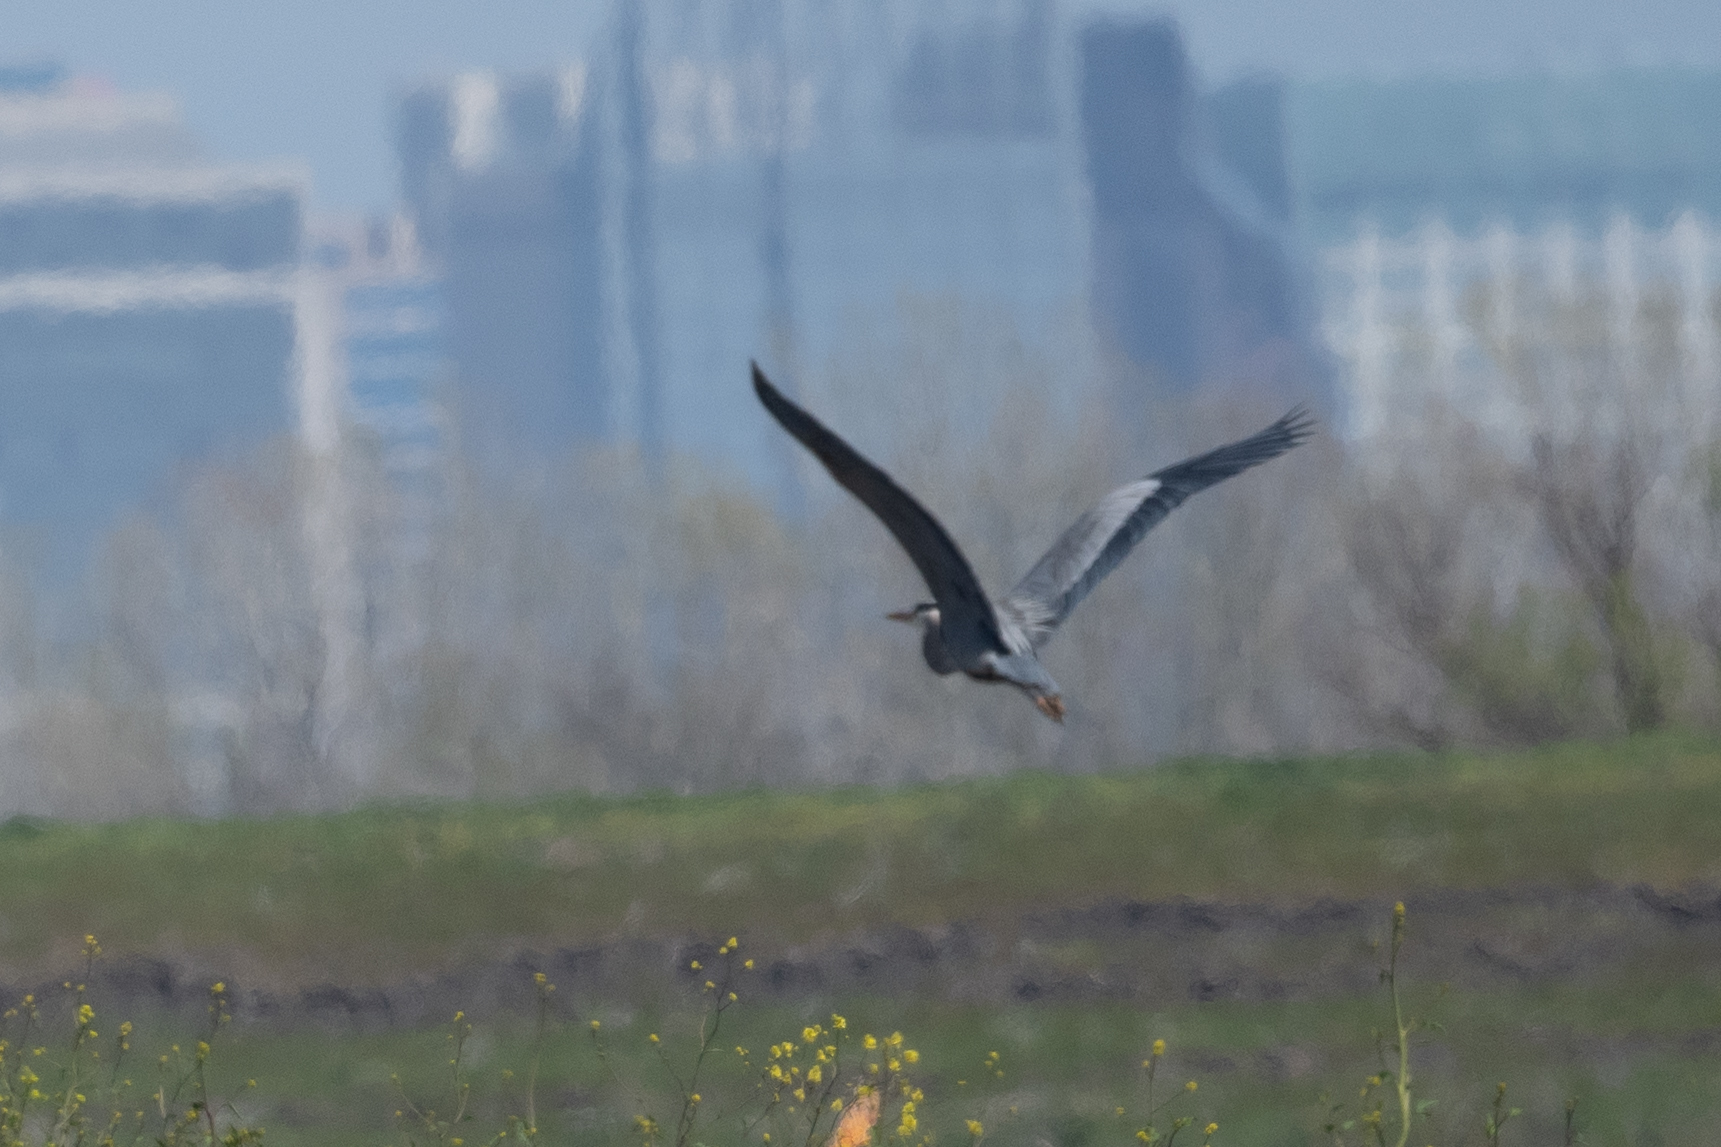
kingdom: Animalia
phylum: Chordata
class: Aves
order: Pelecaniformes
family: Ardeidae
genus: Ardea
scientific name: Ardea herodias
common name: Great blue heron
